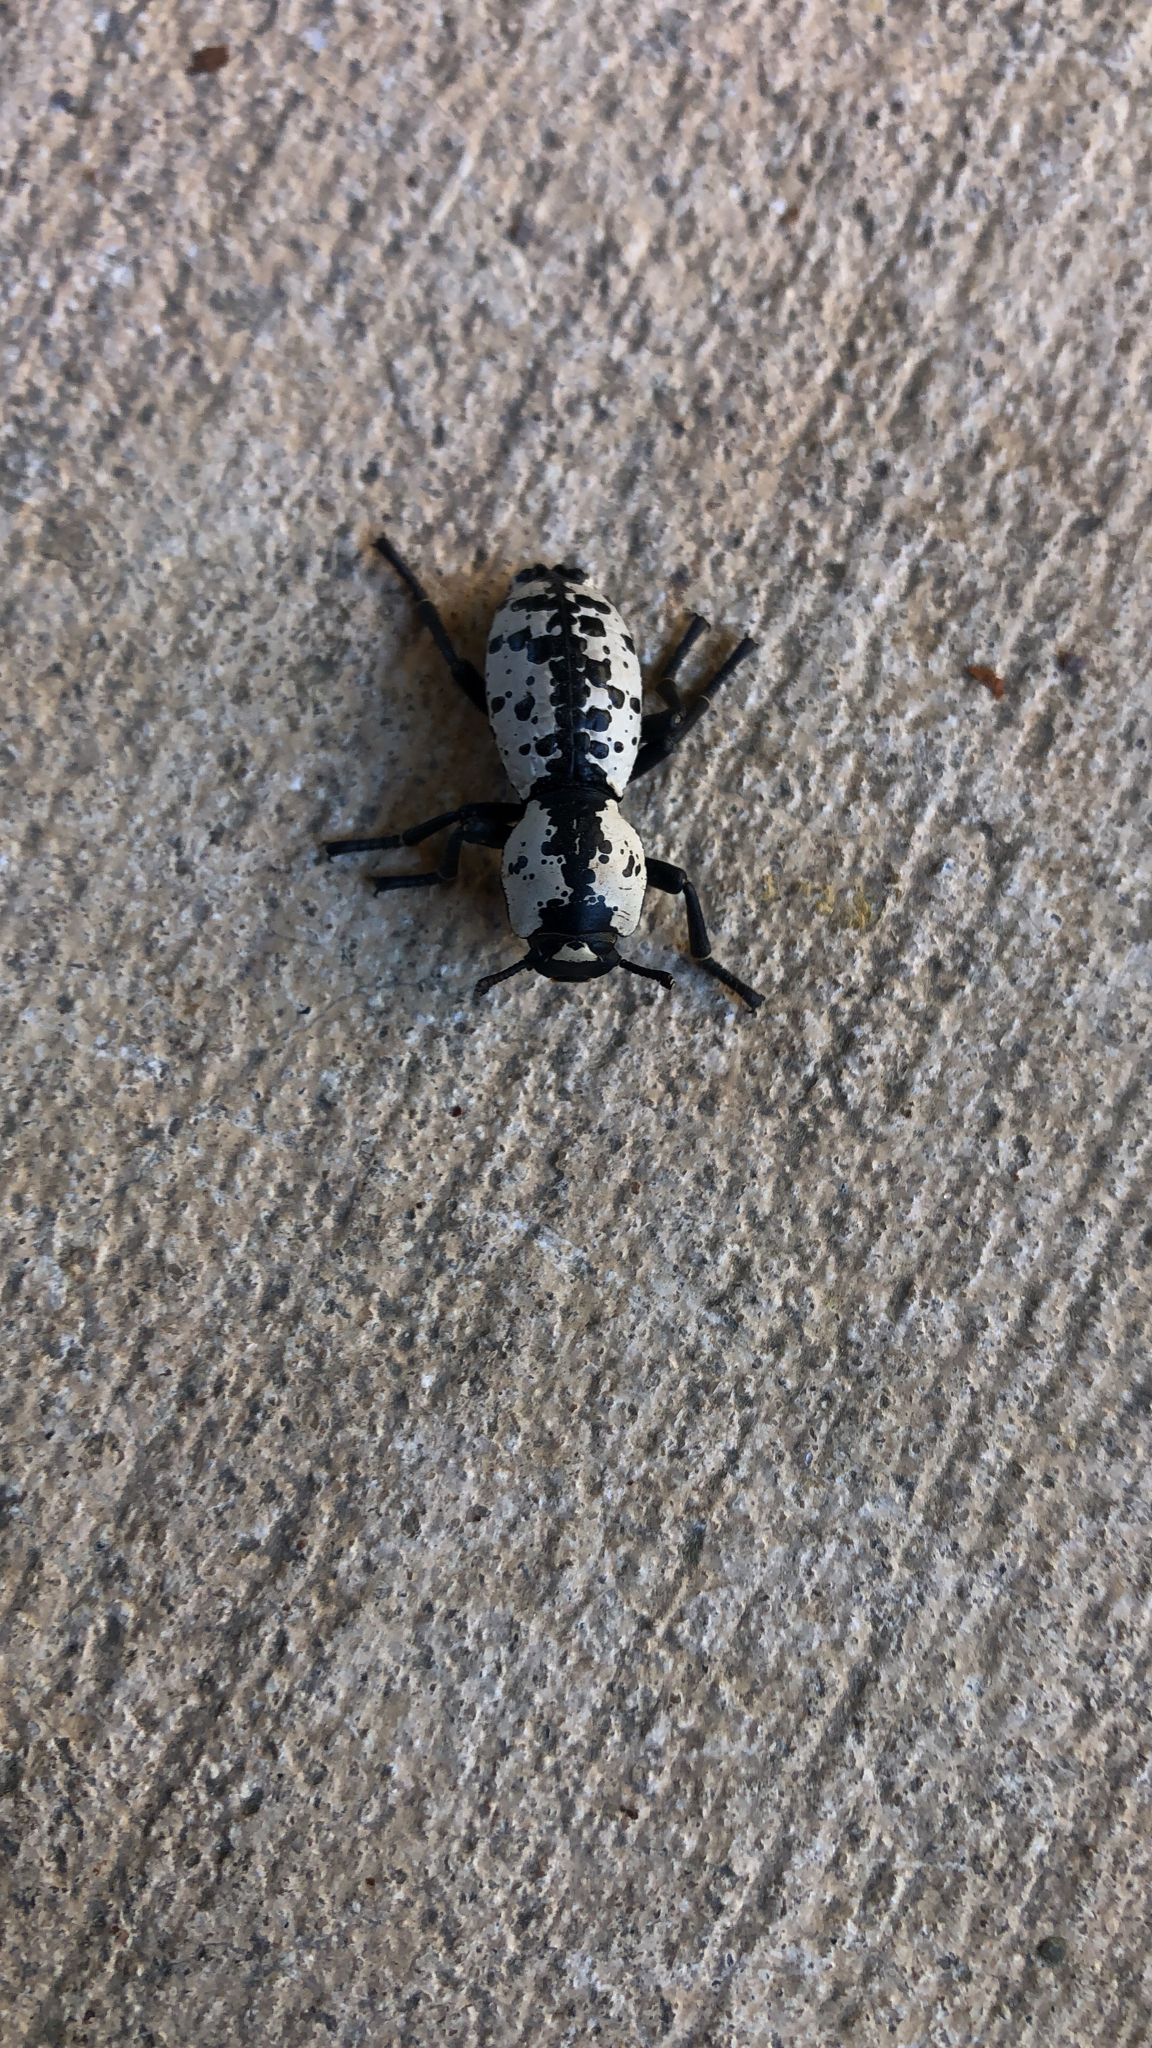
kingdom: Animalia
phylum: Arthropoda
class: Insecta
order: Coleoptera
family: Zopheridae
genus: Zopherus
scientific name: Zopherus nodulosus
